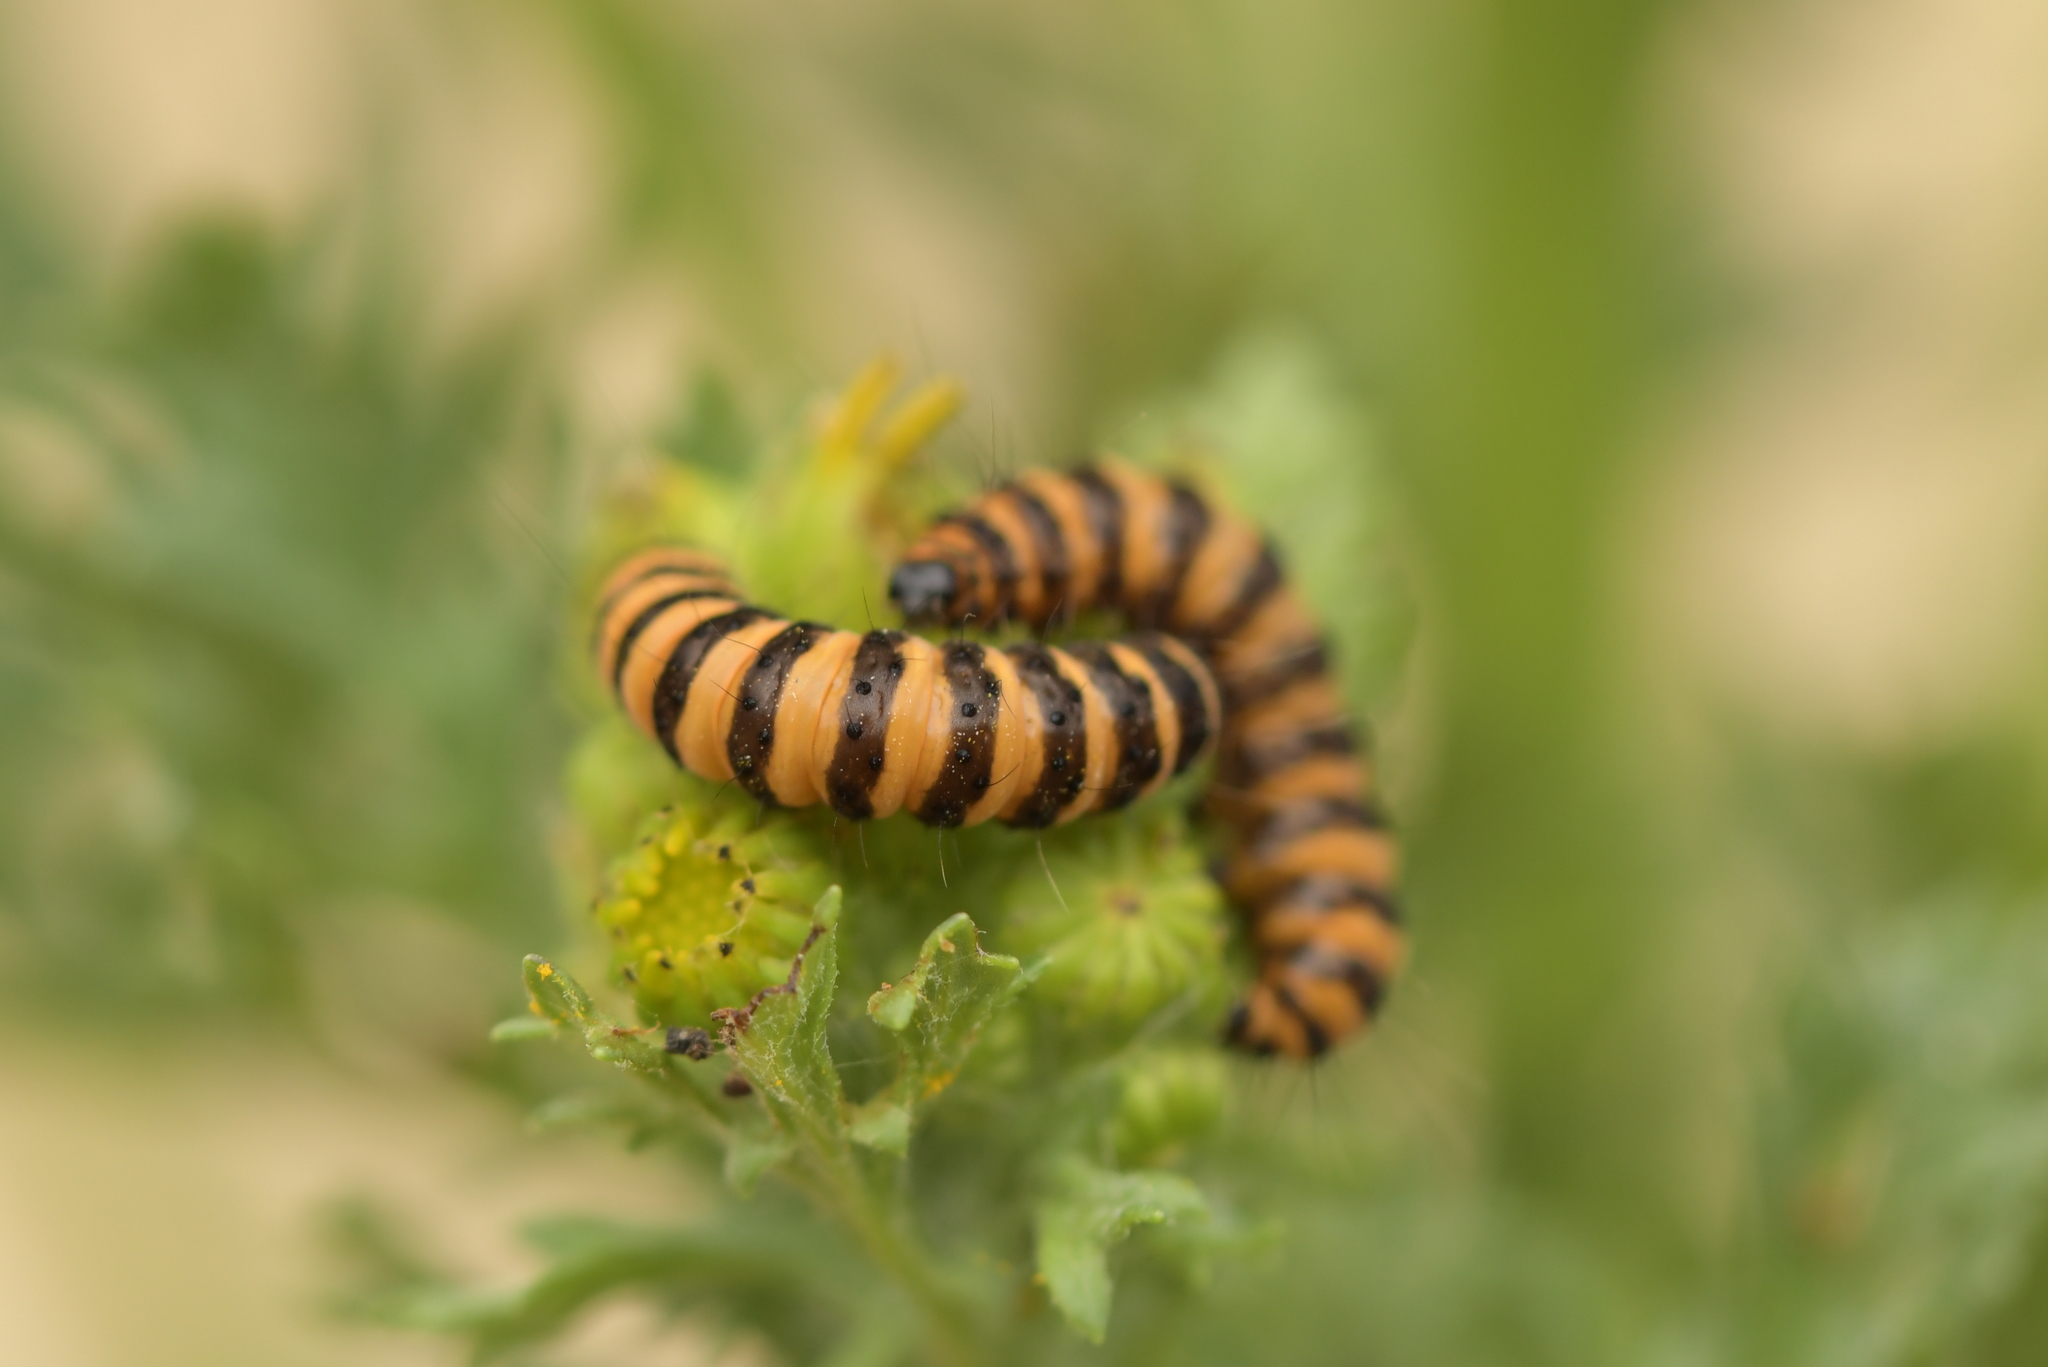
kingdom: Animalia
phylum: Arthropoda
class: Insecta
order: Lepidoptera
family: Erebidae
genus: Tyria
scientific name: Tyria jacobaeae
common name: Cinnabar
